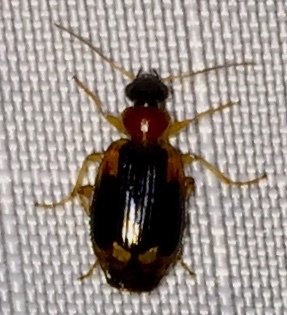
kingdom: Animalia
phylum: Arthropoda
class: Insecta
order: Coleoptera
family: Carabidae
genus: Lebia
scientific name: Lebia analis
